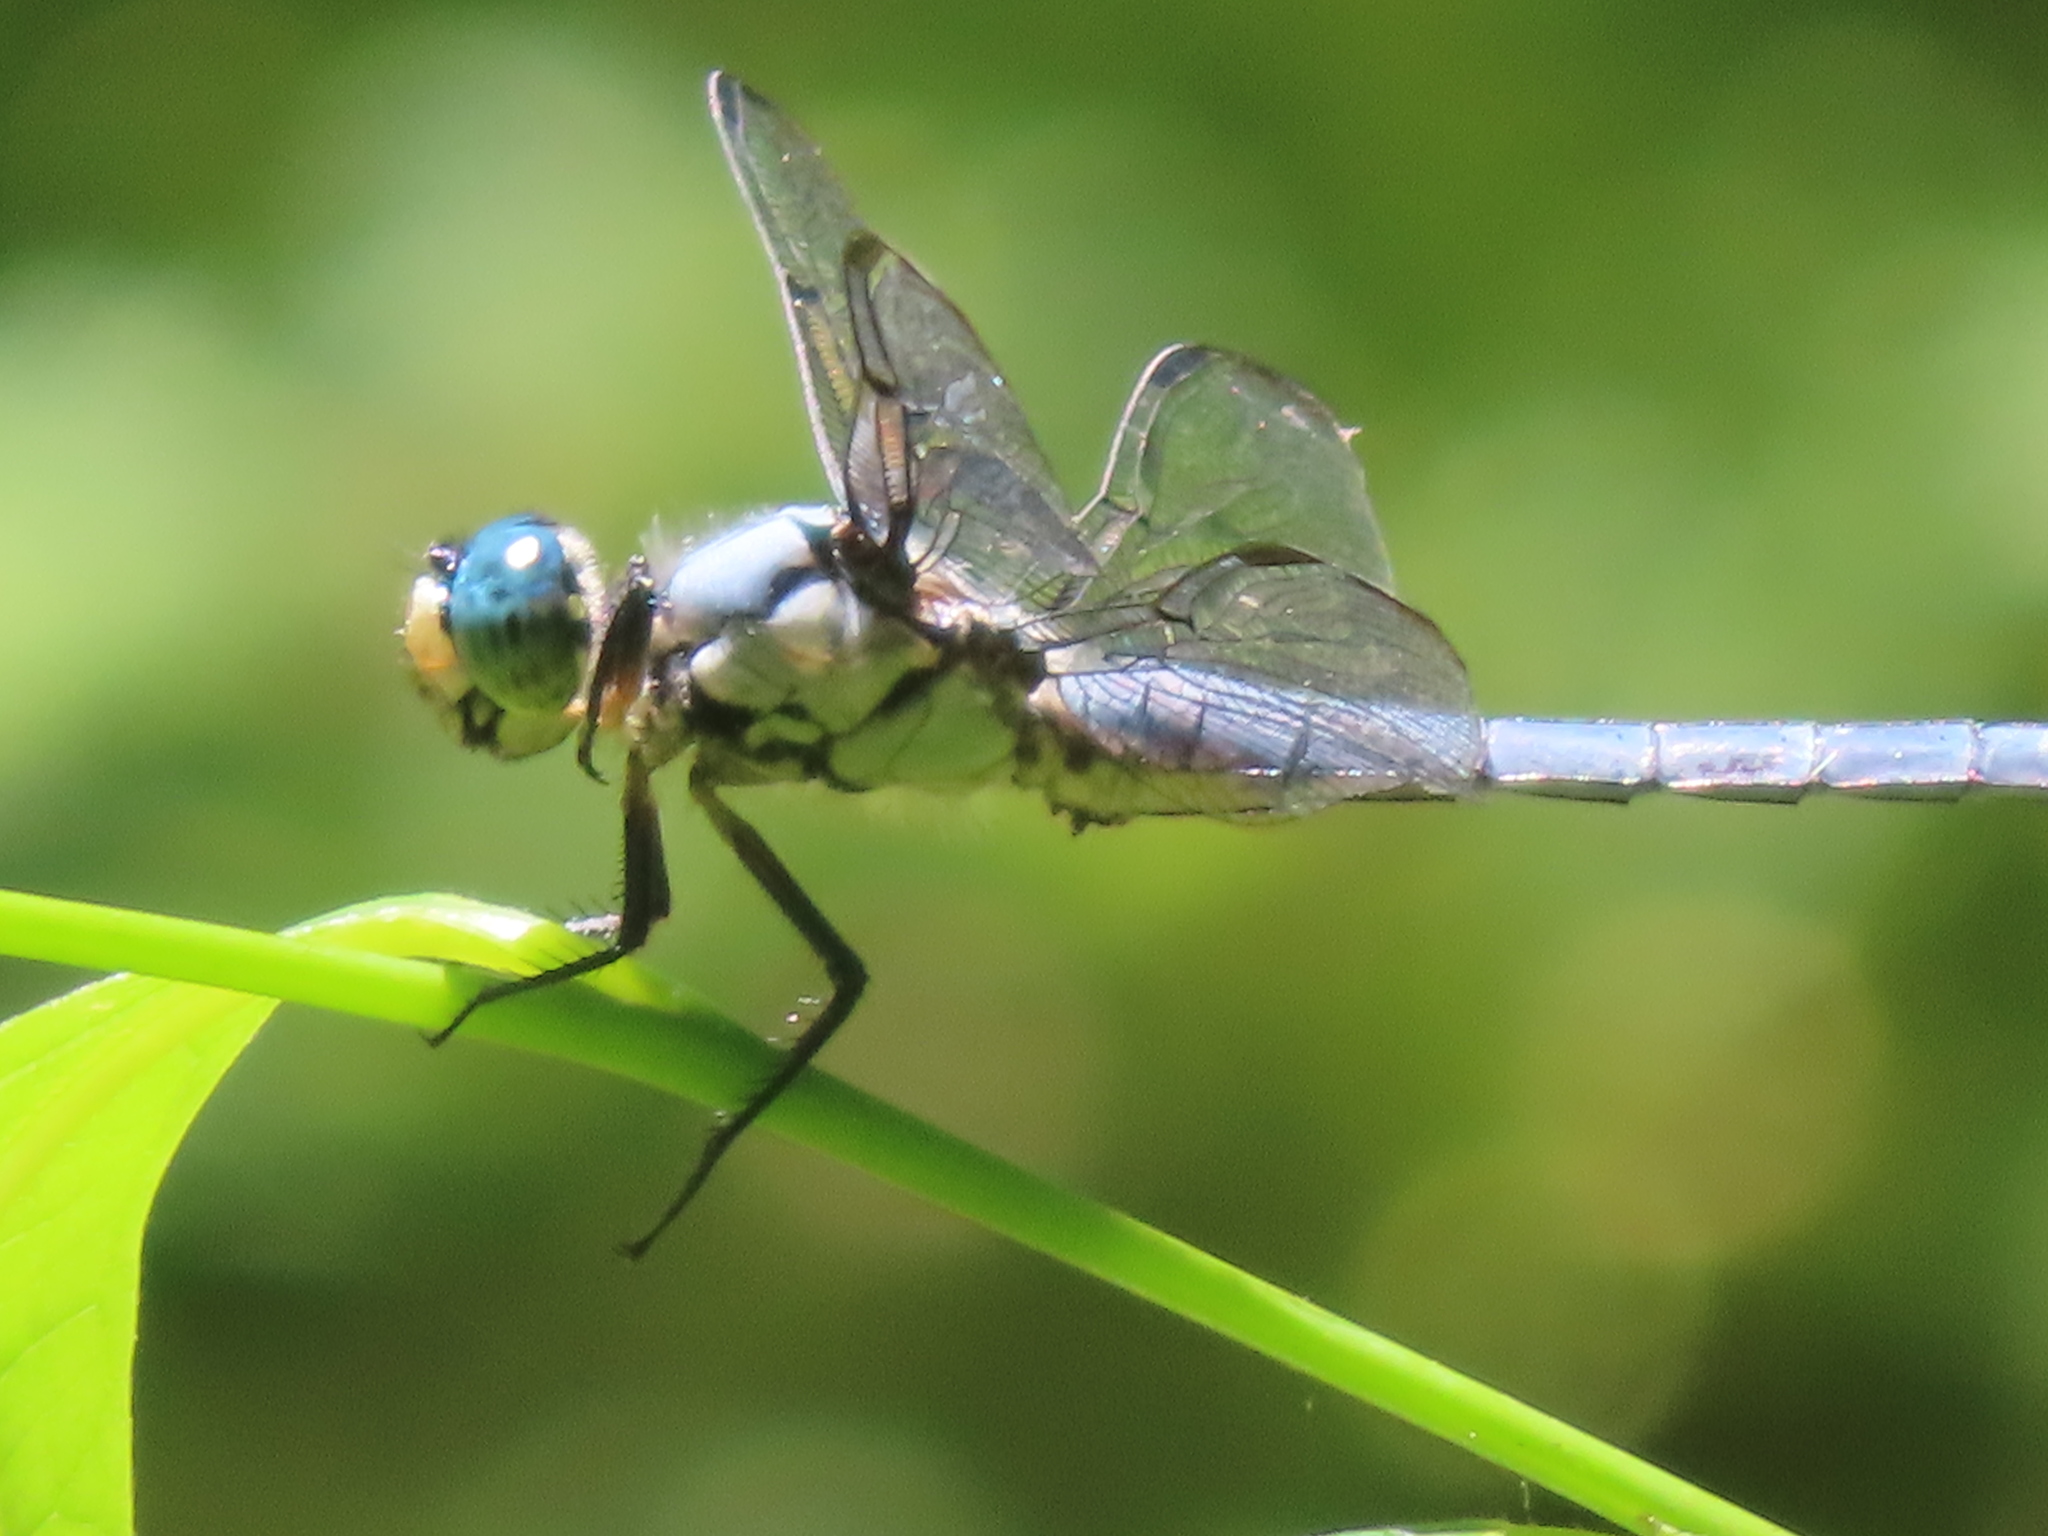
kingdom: Animalia
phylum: Arthropoda
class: Insecta
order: Odonata
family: Libellulidae
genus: Libellula
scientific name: Libellula vibrans
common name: Great blue skimmer
